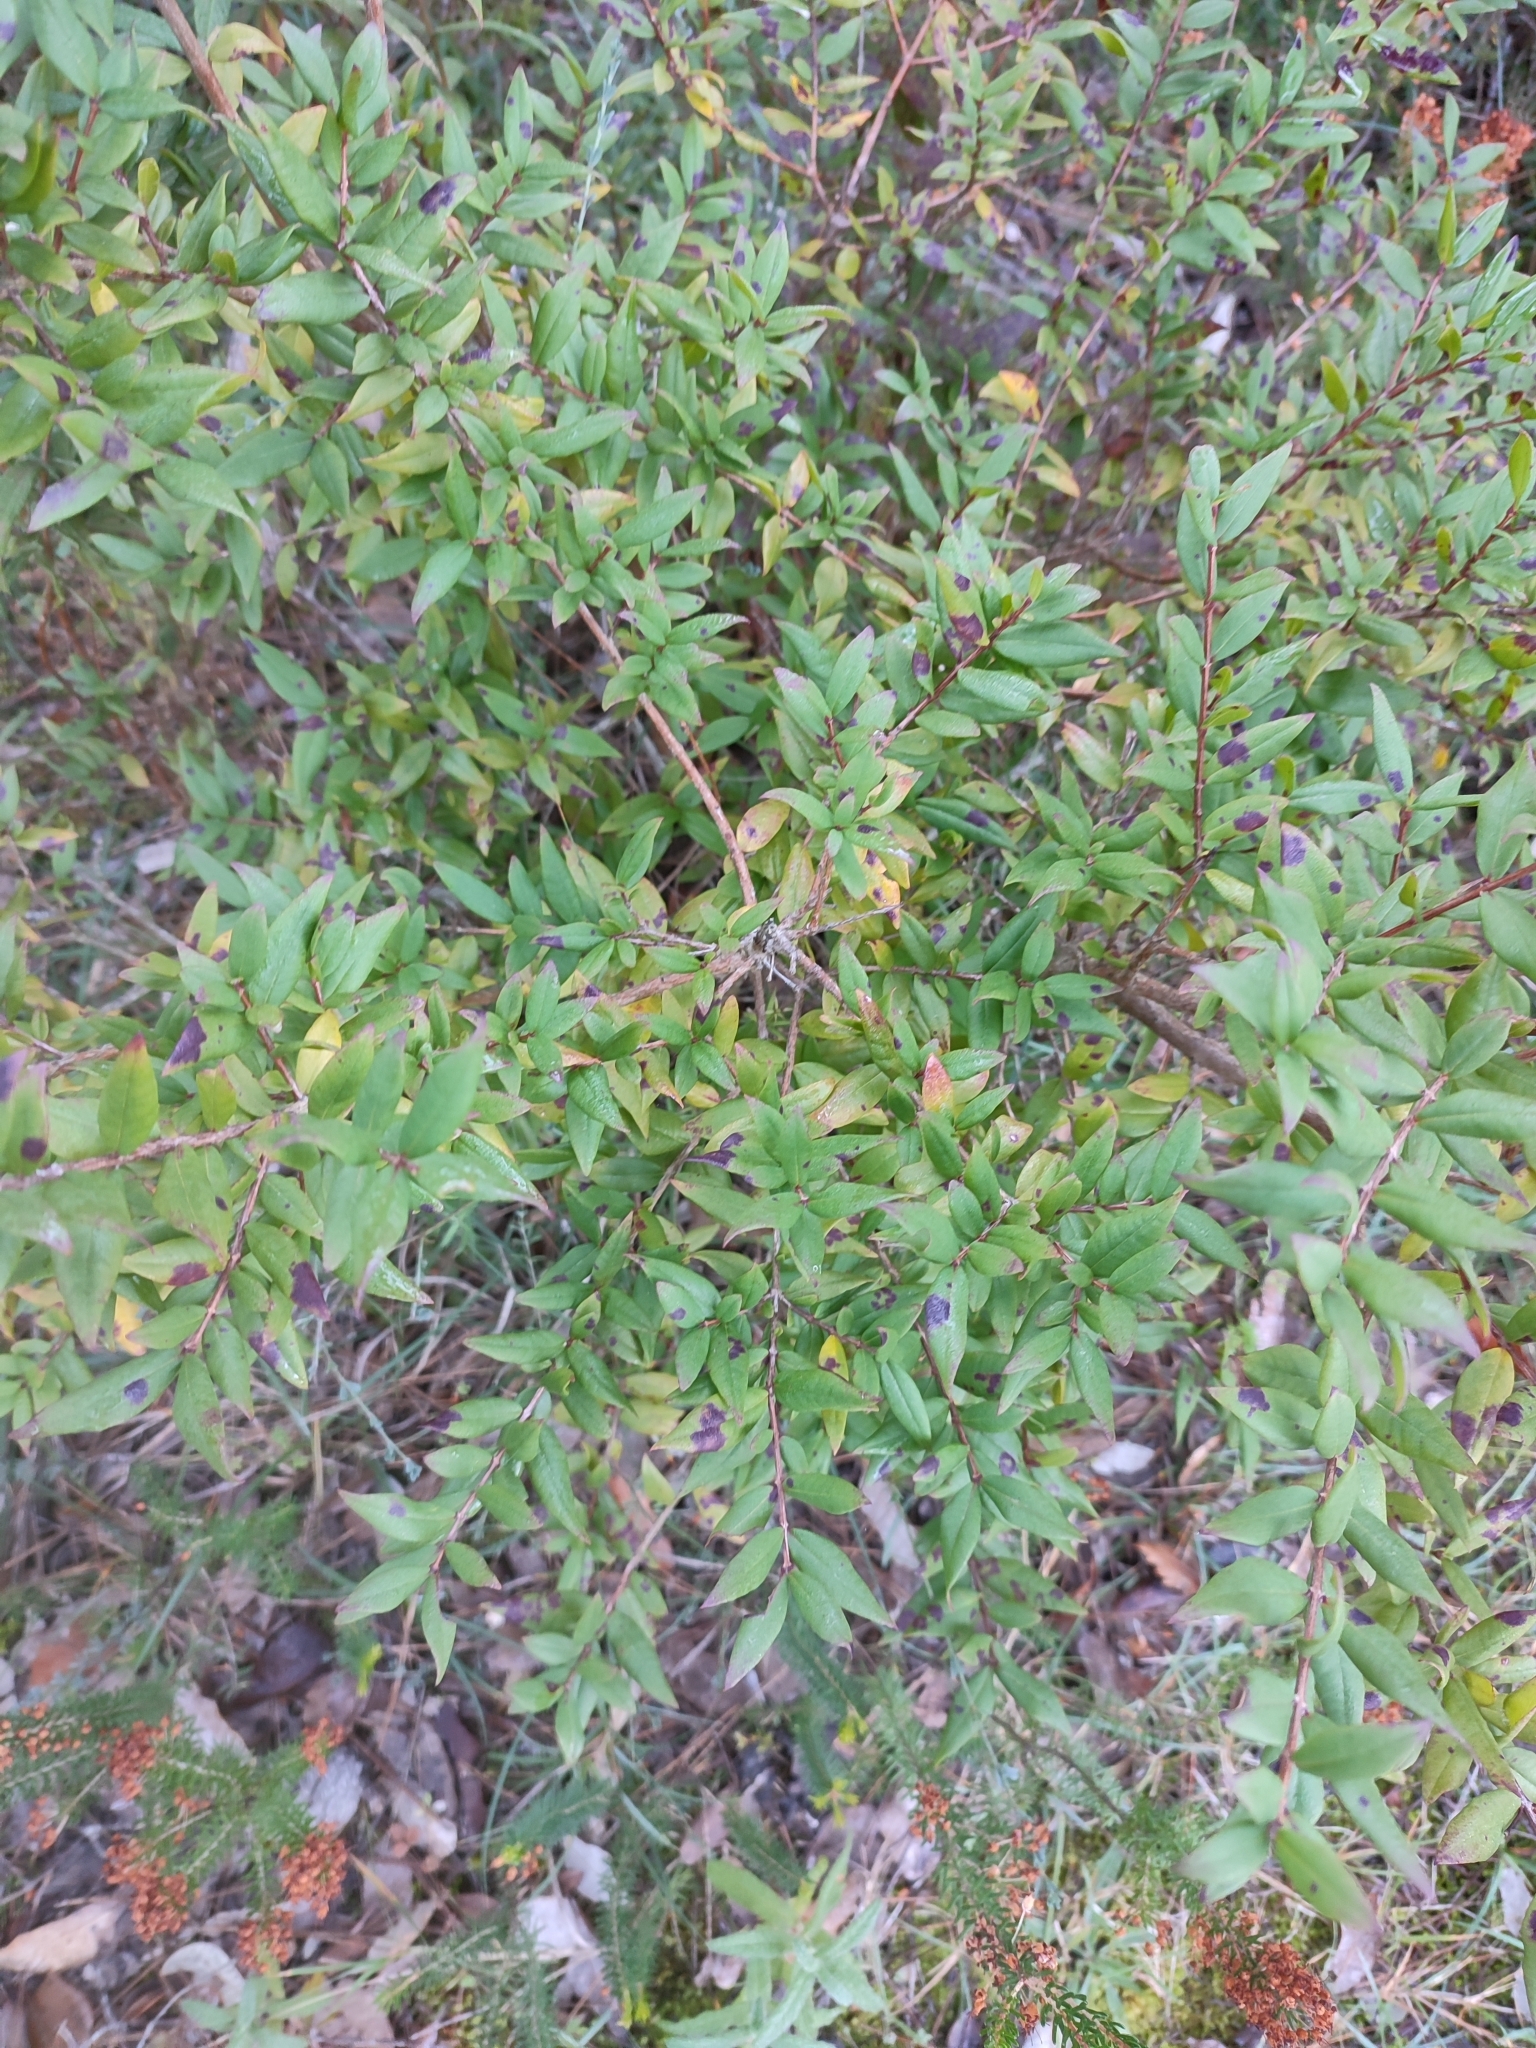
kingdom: Plantae
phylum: Tracheophyta
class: Magnoliopsida
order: Myrtales
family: Myrtaceae
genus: Myrtus
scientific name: Myrtus communis
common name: Myrtle
